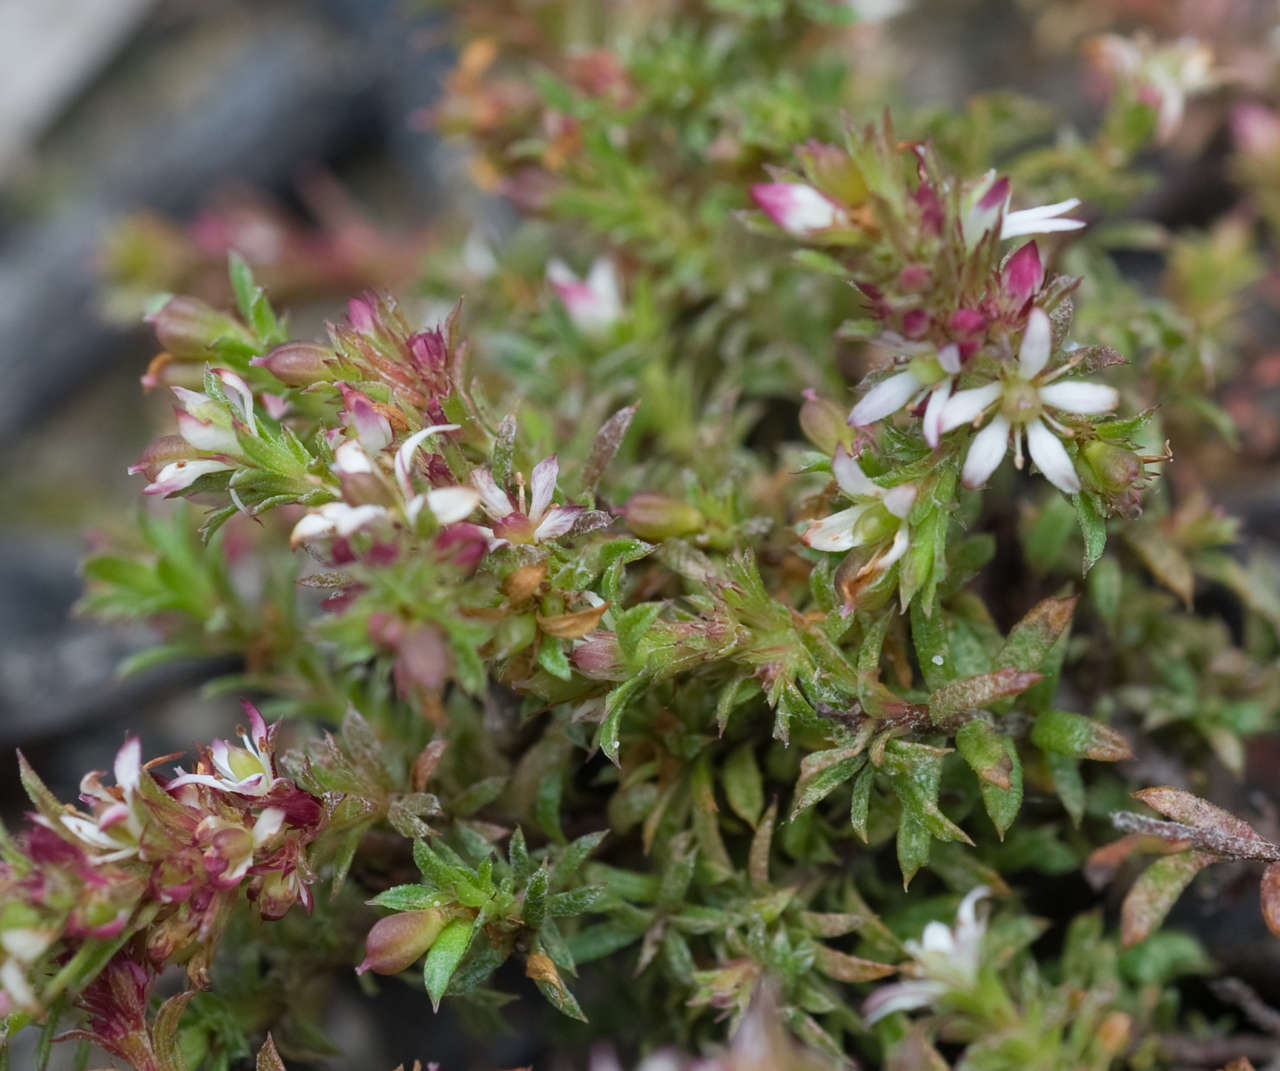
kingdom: Plantae
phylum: Tracheophyta
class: Magnoliopsida
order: Apiales
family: Pittosporaceae
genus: Rhytidosporum
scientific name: Rhytidosporum procumbens
